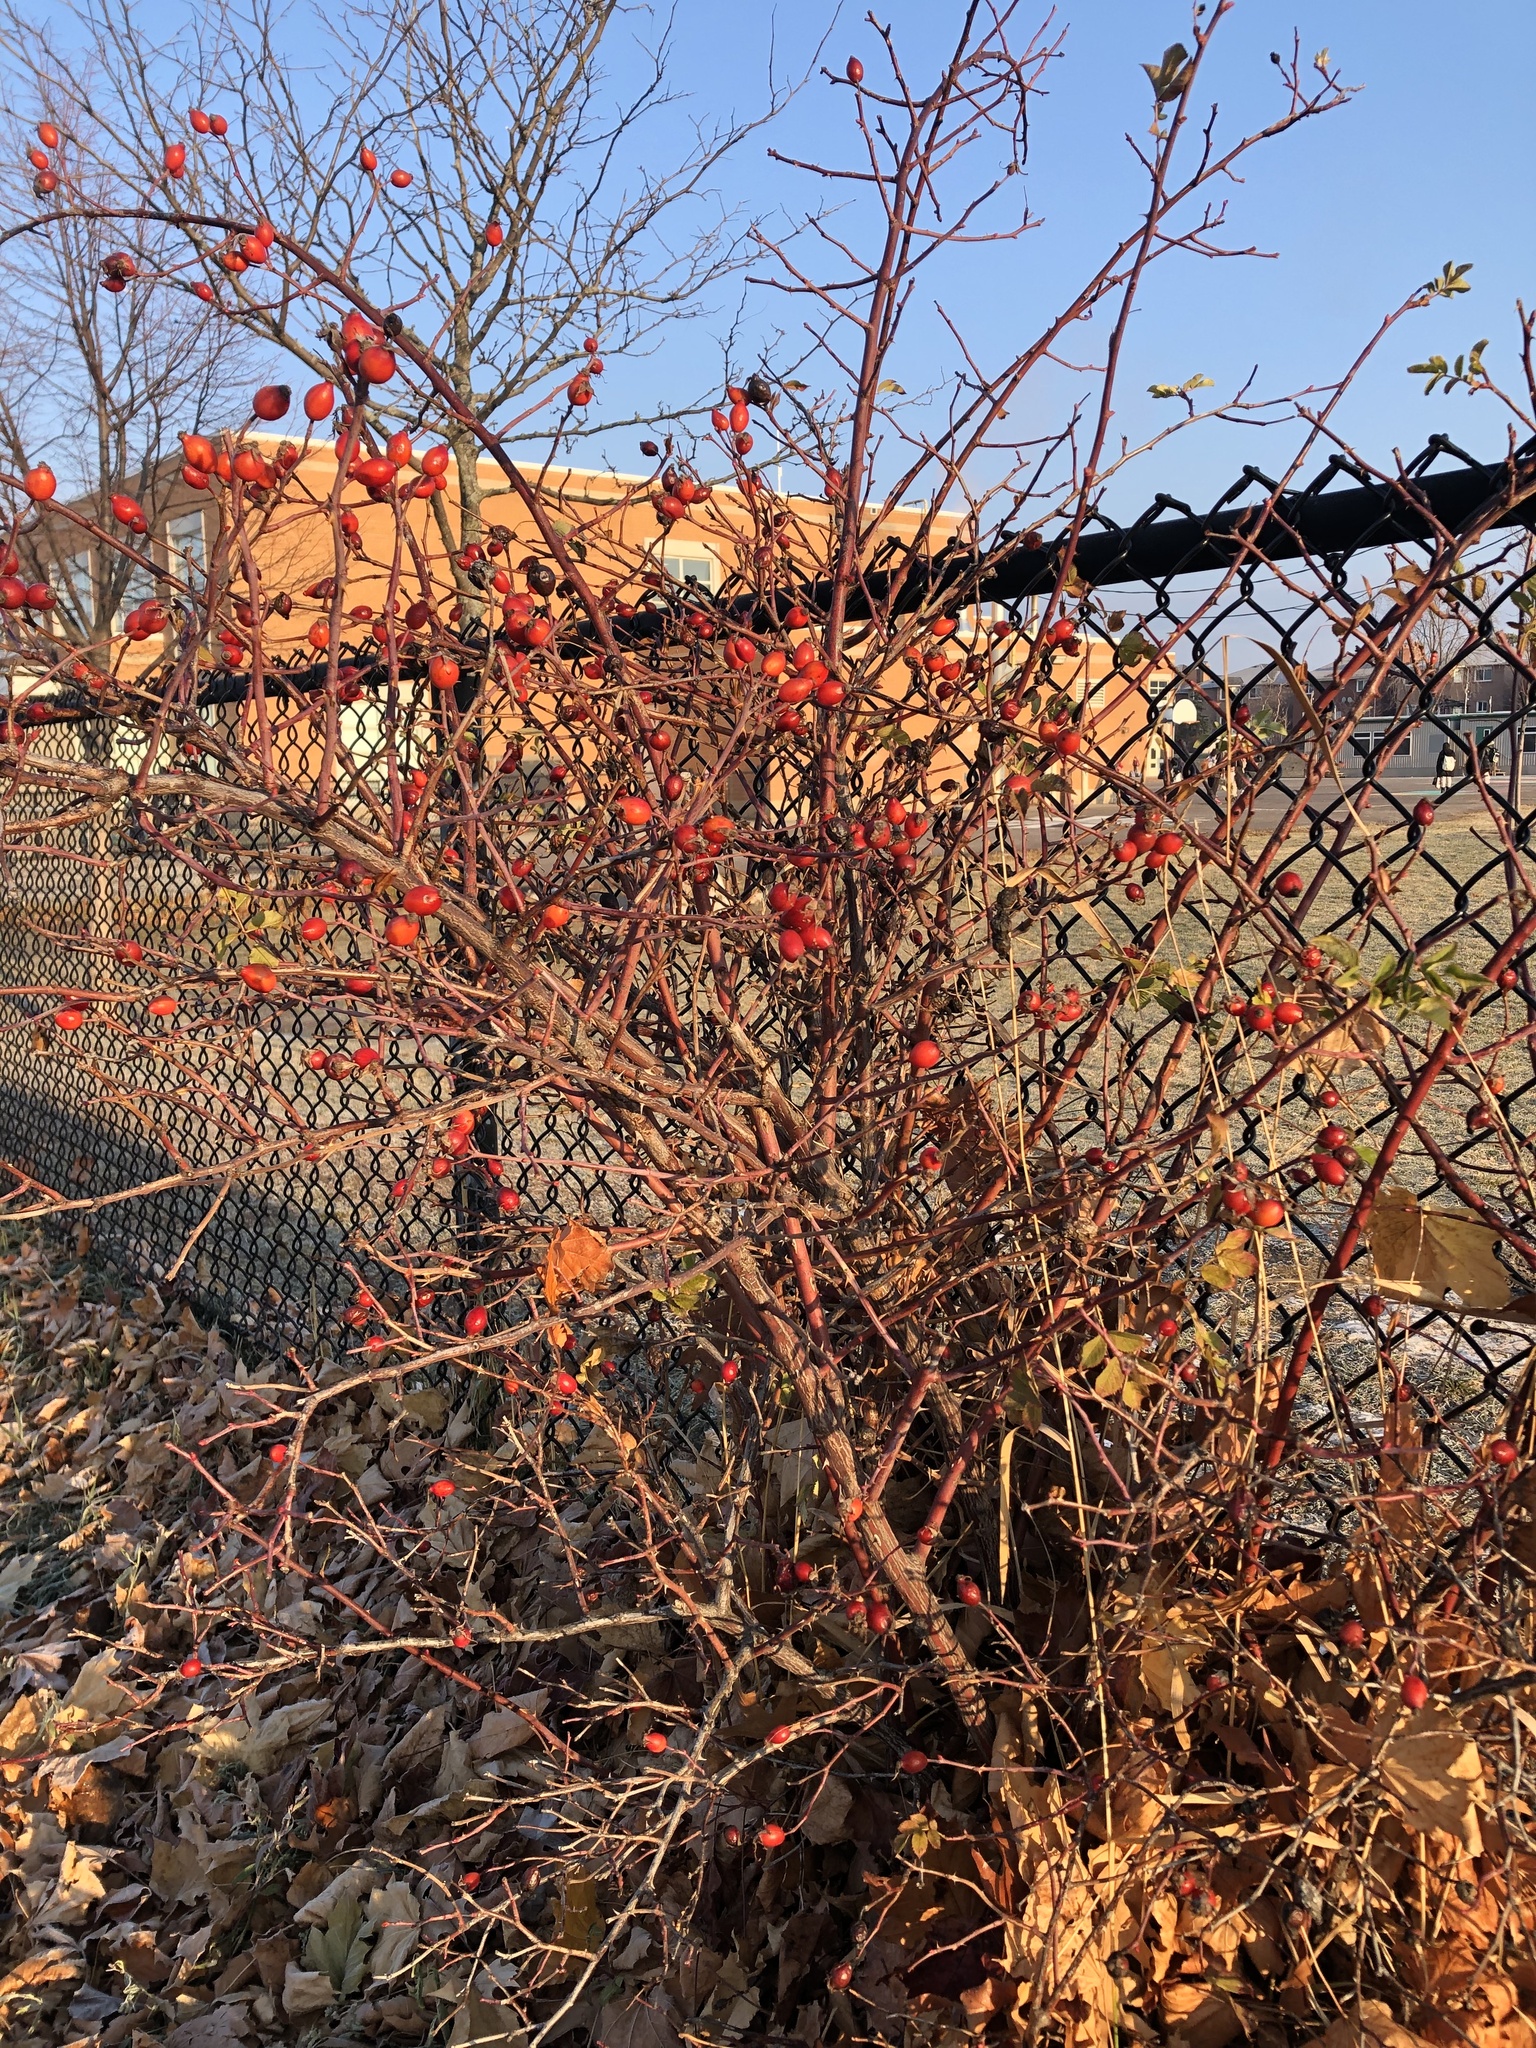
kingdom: Plantae
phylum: Tracheophyta
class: Magnoliopsida
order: Rosales
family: Rosaceae
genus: Rosa
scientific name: Rosa canina
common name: Dog rose
